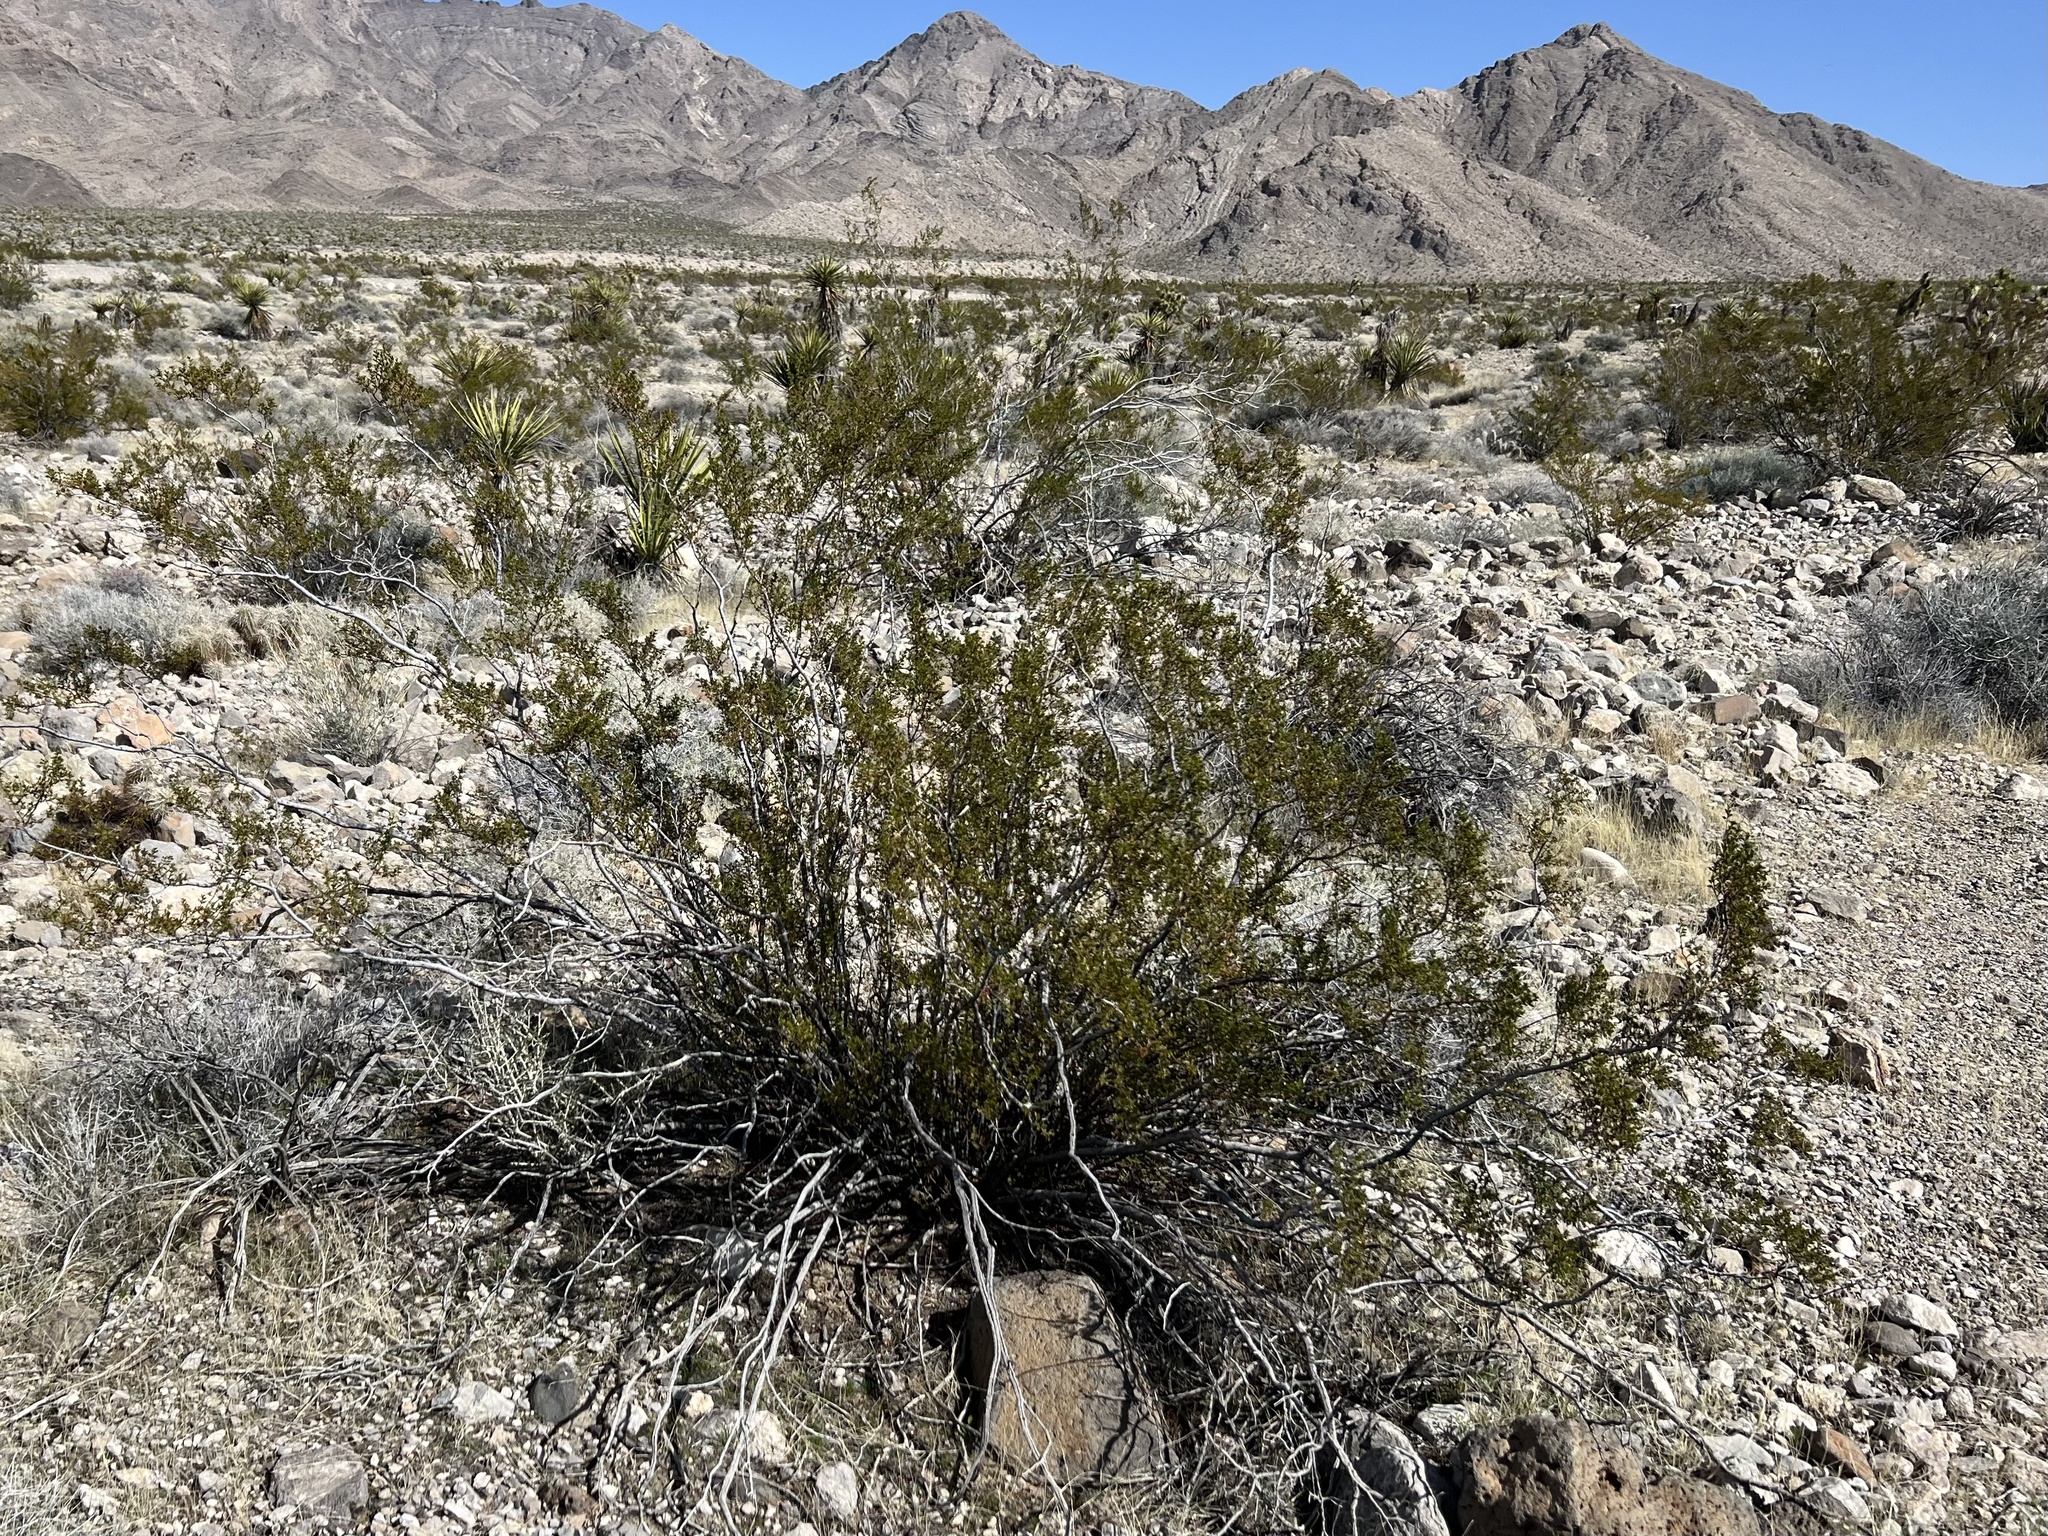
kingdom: Plantae
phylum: Tracheophyta
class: Magnoliopsida
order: Zygophyllales
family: Zygophyllaceae
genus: Larrea
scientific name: Larrea tridentata
